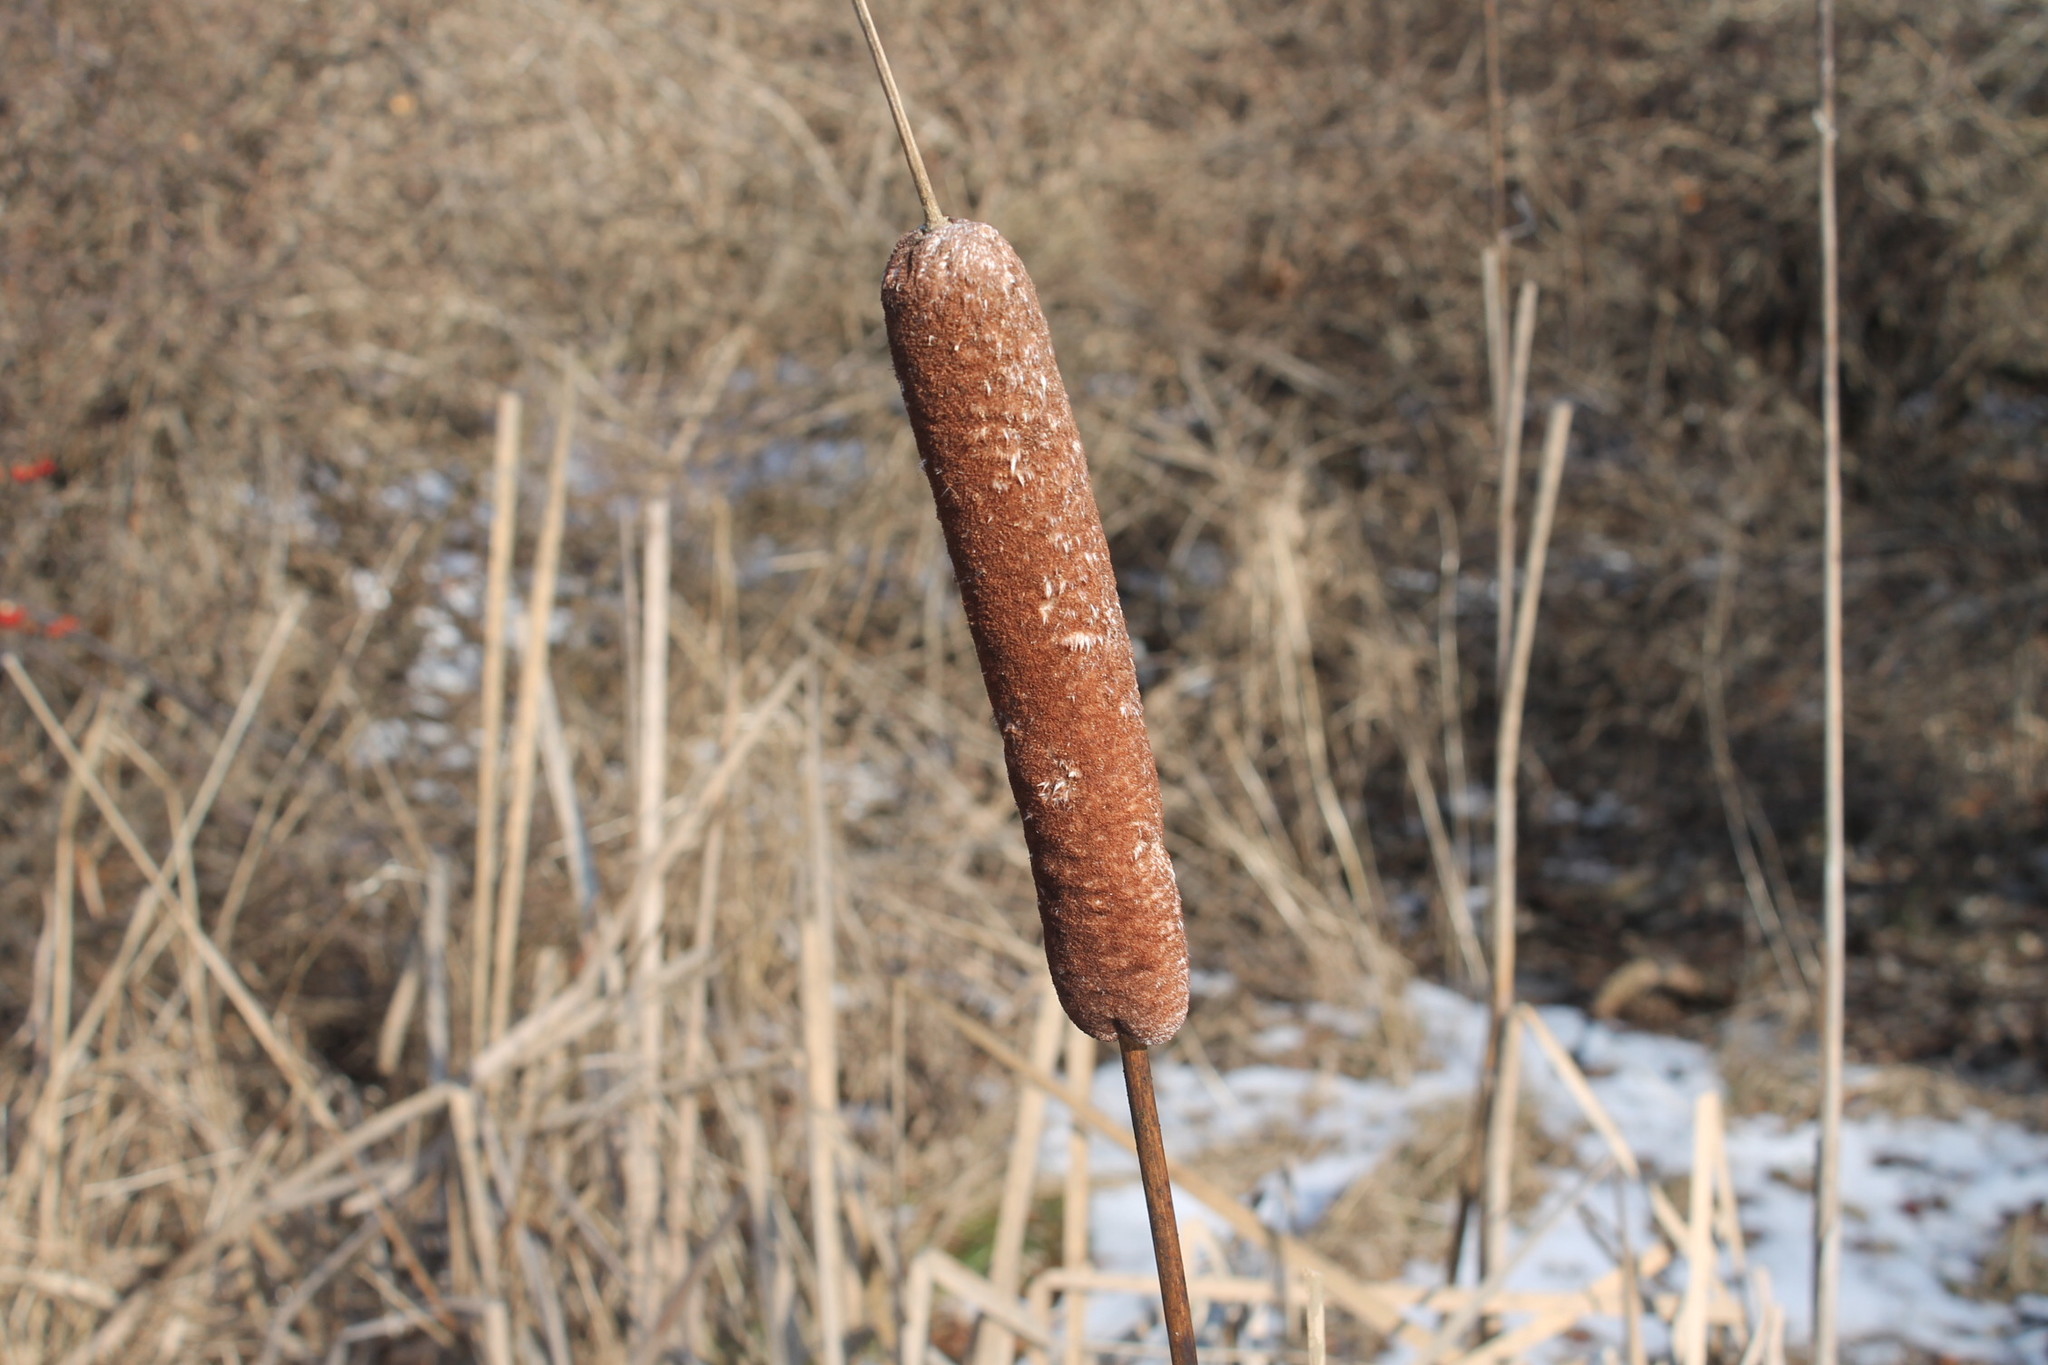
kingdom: Plantae
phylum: Tracheophyta
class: Liliopsida
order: Poales
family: Typhaceae
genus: Typha
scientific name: Typha latifolia
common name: Broadleaf cattail
